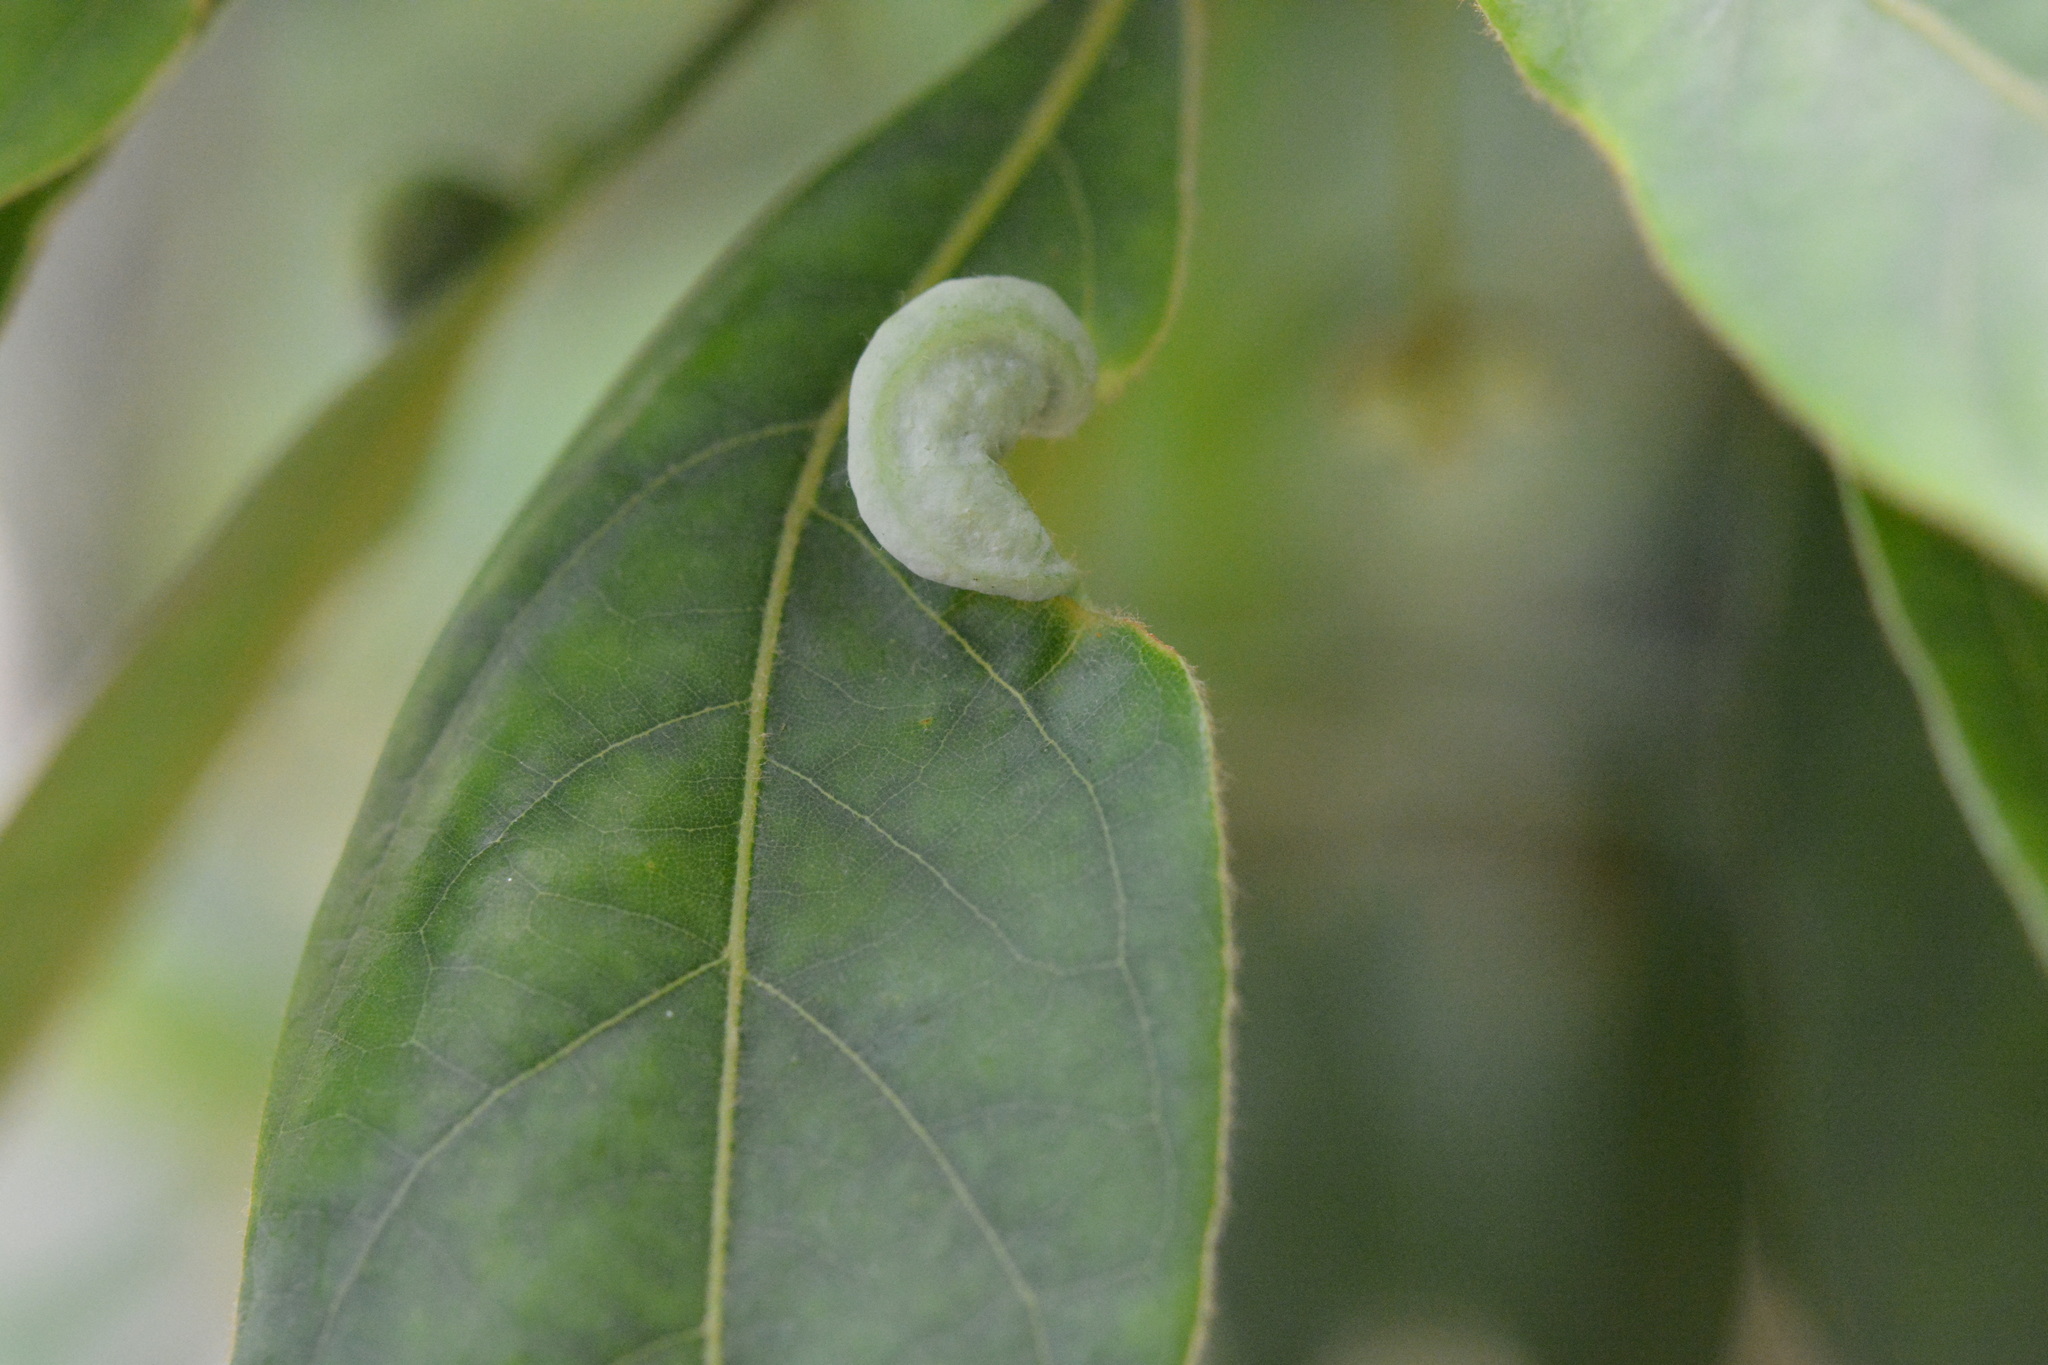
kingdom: Animalia
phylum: Arthropoda
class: Insecta
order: Hemiptera
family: Triozidae
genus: Trioza
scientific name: Trioza magnoliae
